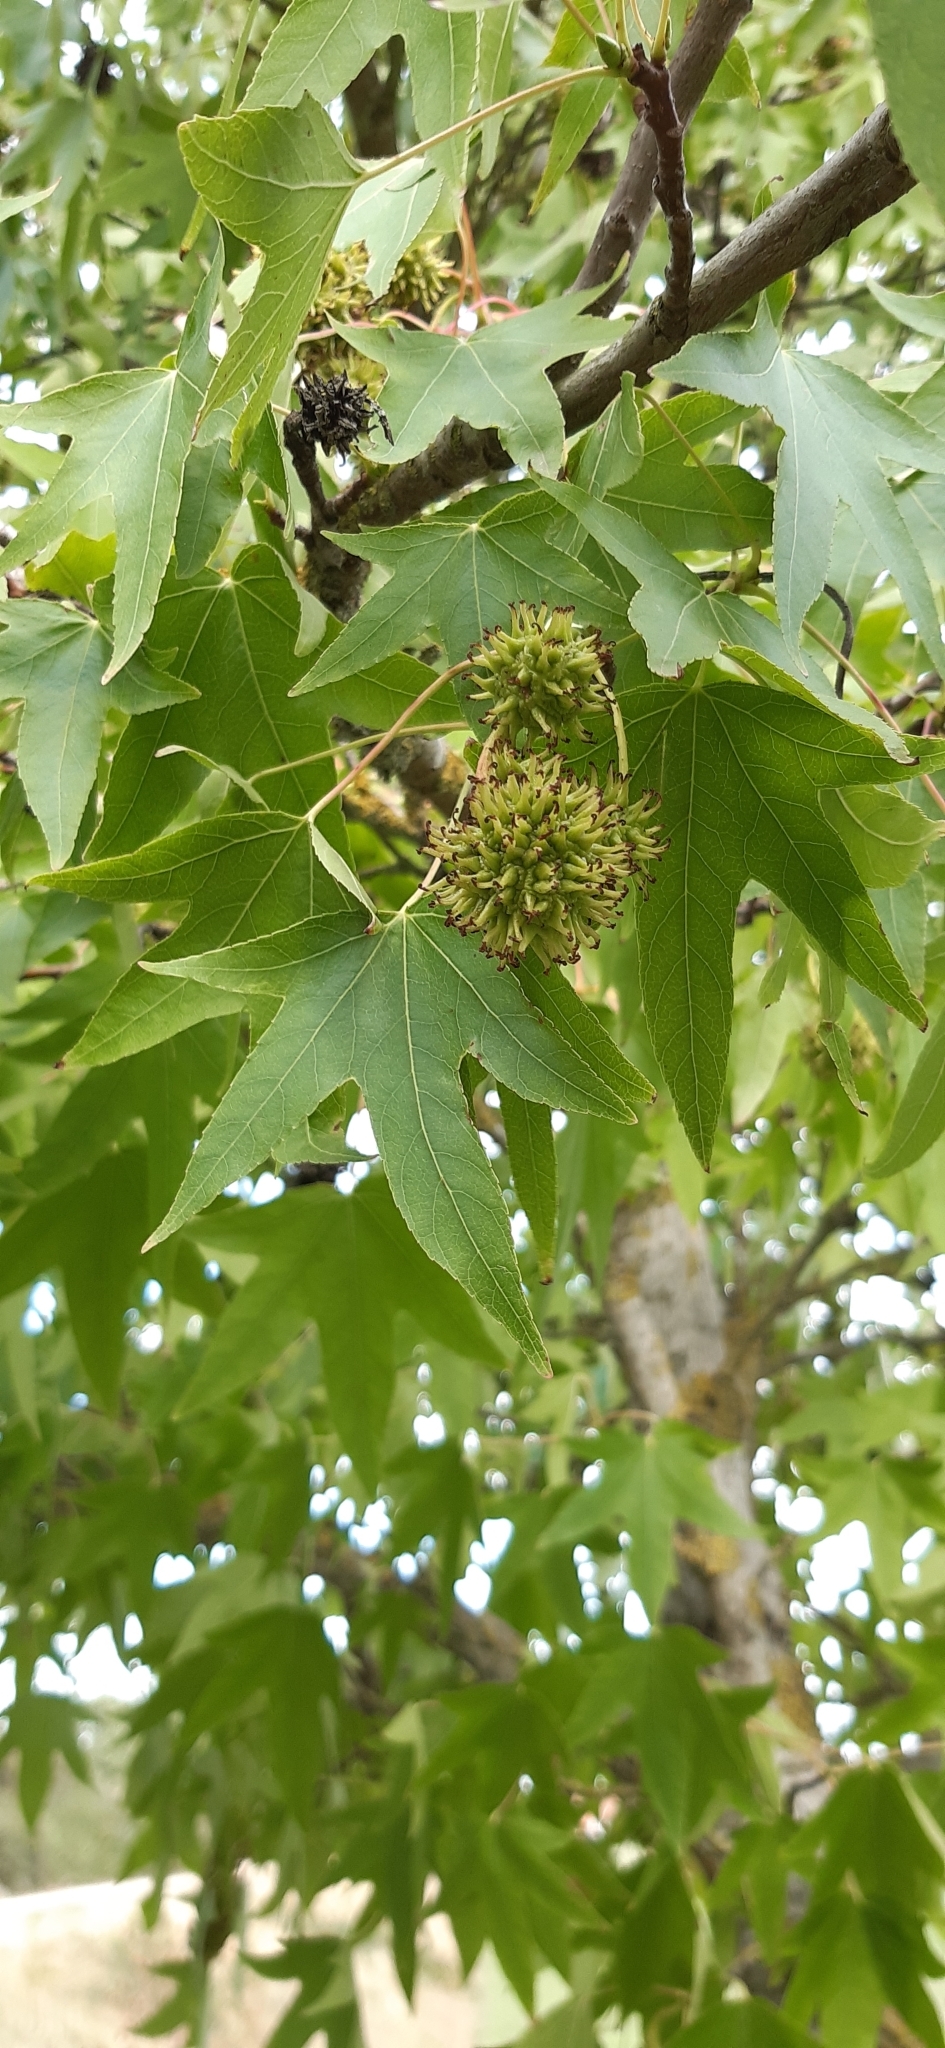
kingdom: Plantae
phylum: Tracheophyta
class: Magnoliopsida
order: Saxifragales
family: Altingiaceae
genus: Liquidambar
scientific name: Liquidambar styraciflua
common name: Sweet gum
